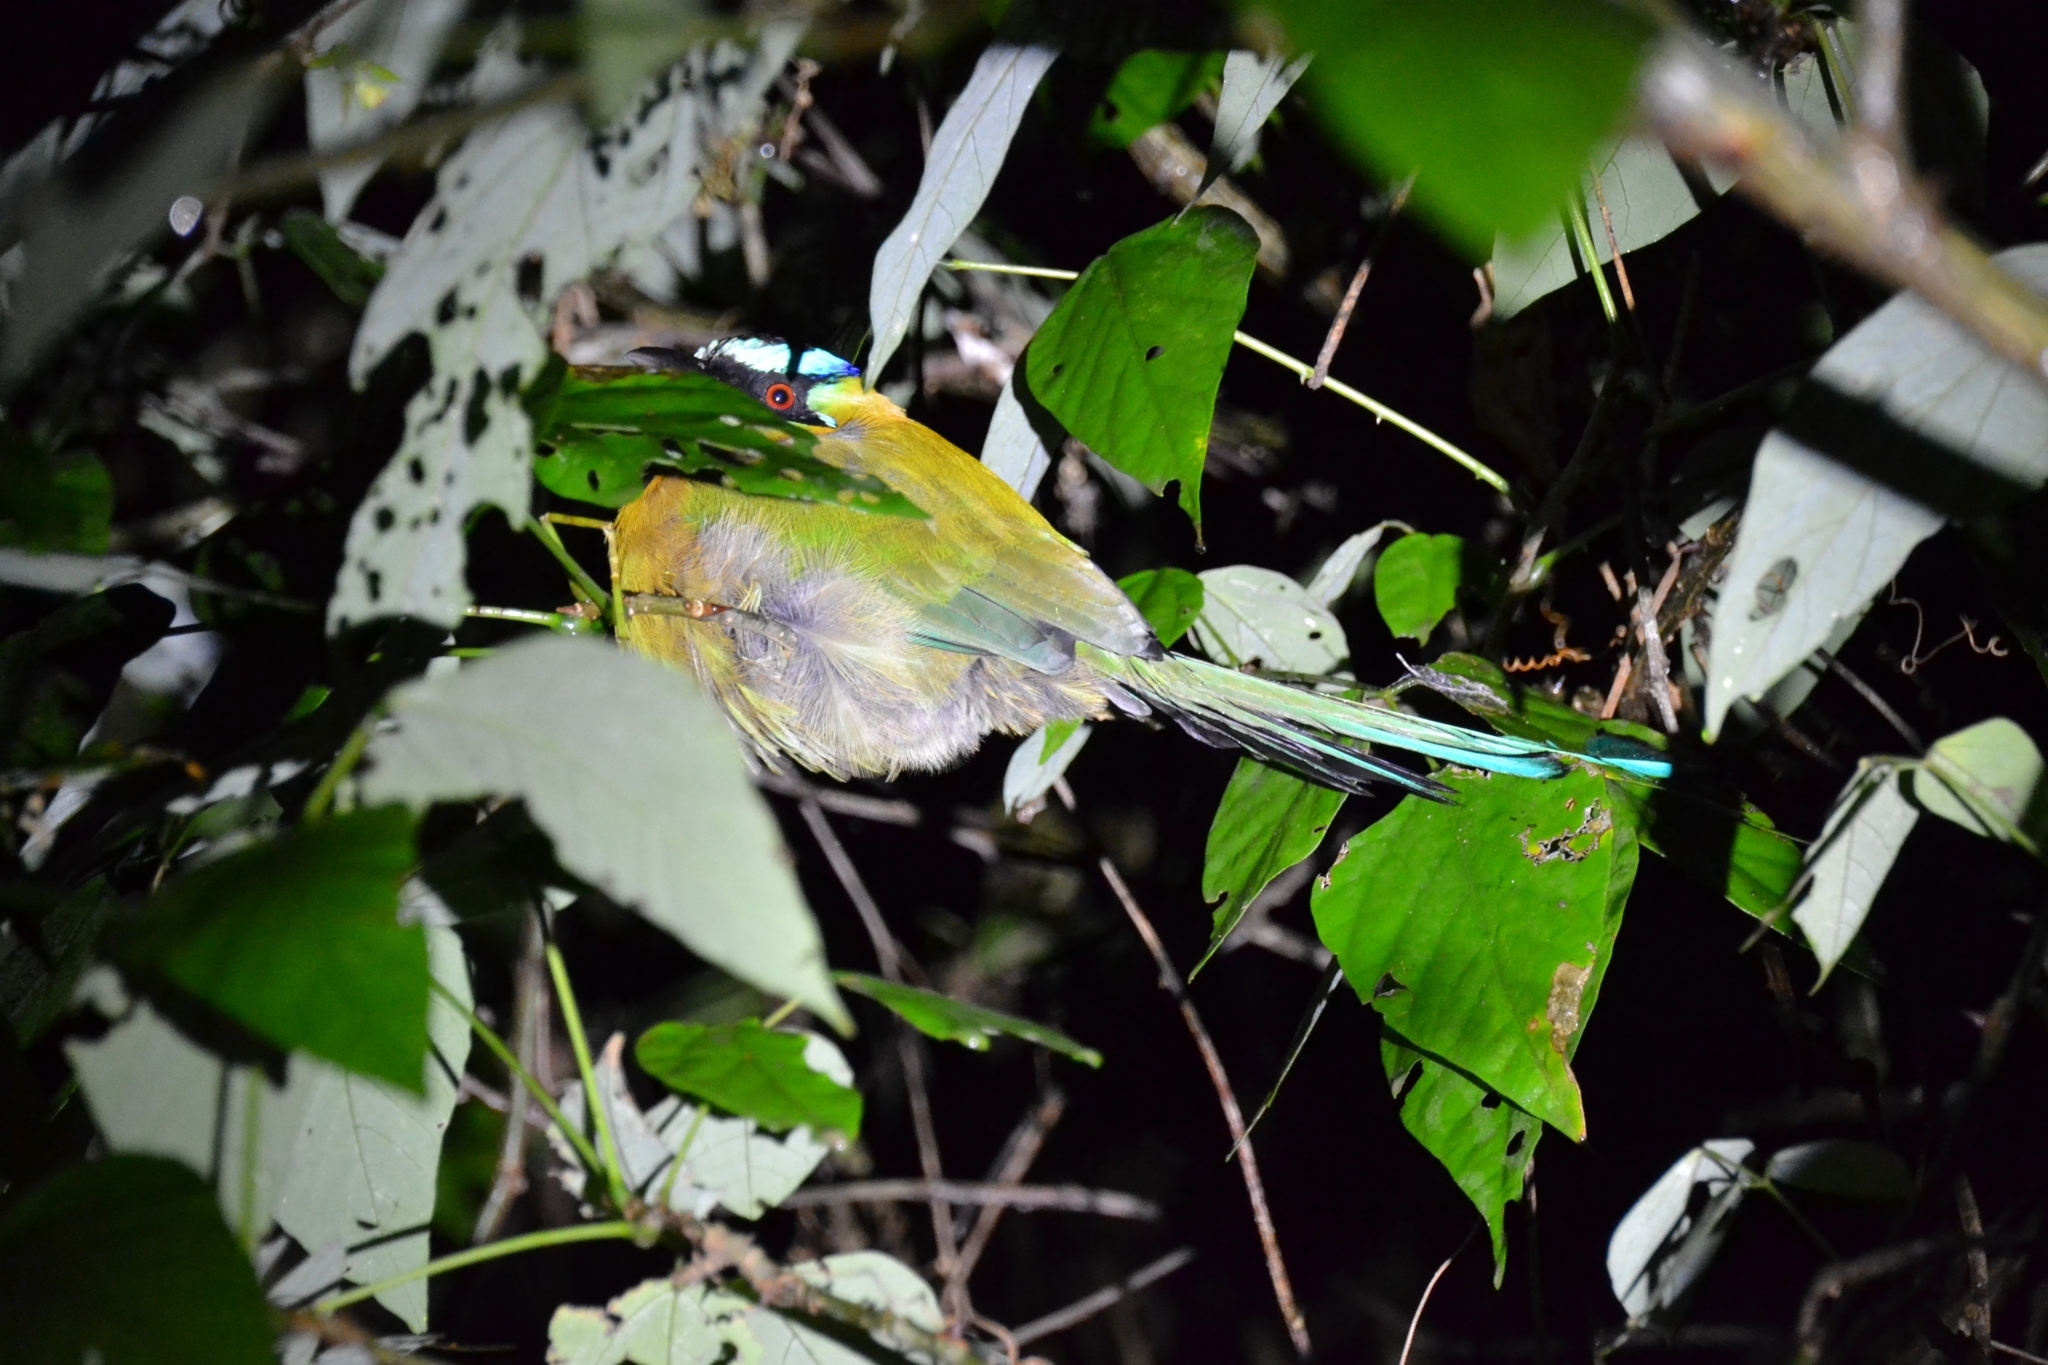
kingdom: Animalia
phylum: Chordata
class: Aves
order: Coraciiformes
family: Momotidae
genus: Momotus
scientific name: Momotus lessonii
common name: Lesson's motmot
